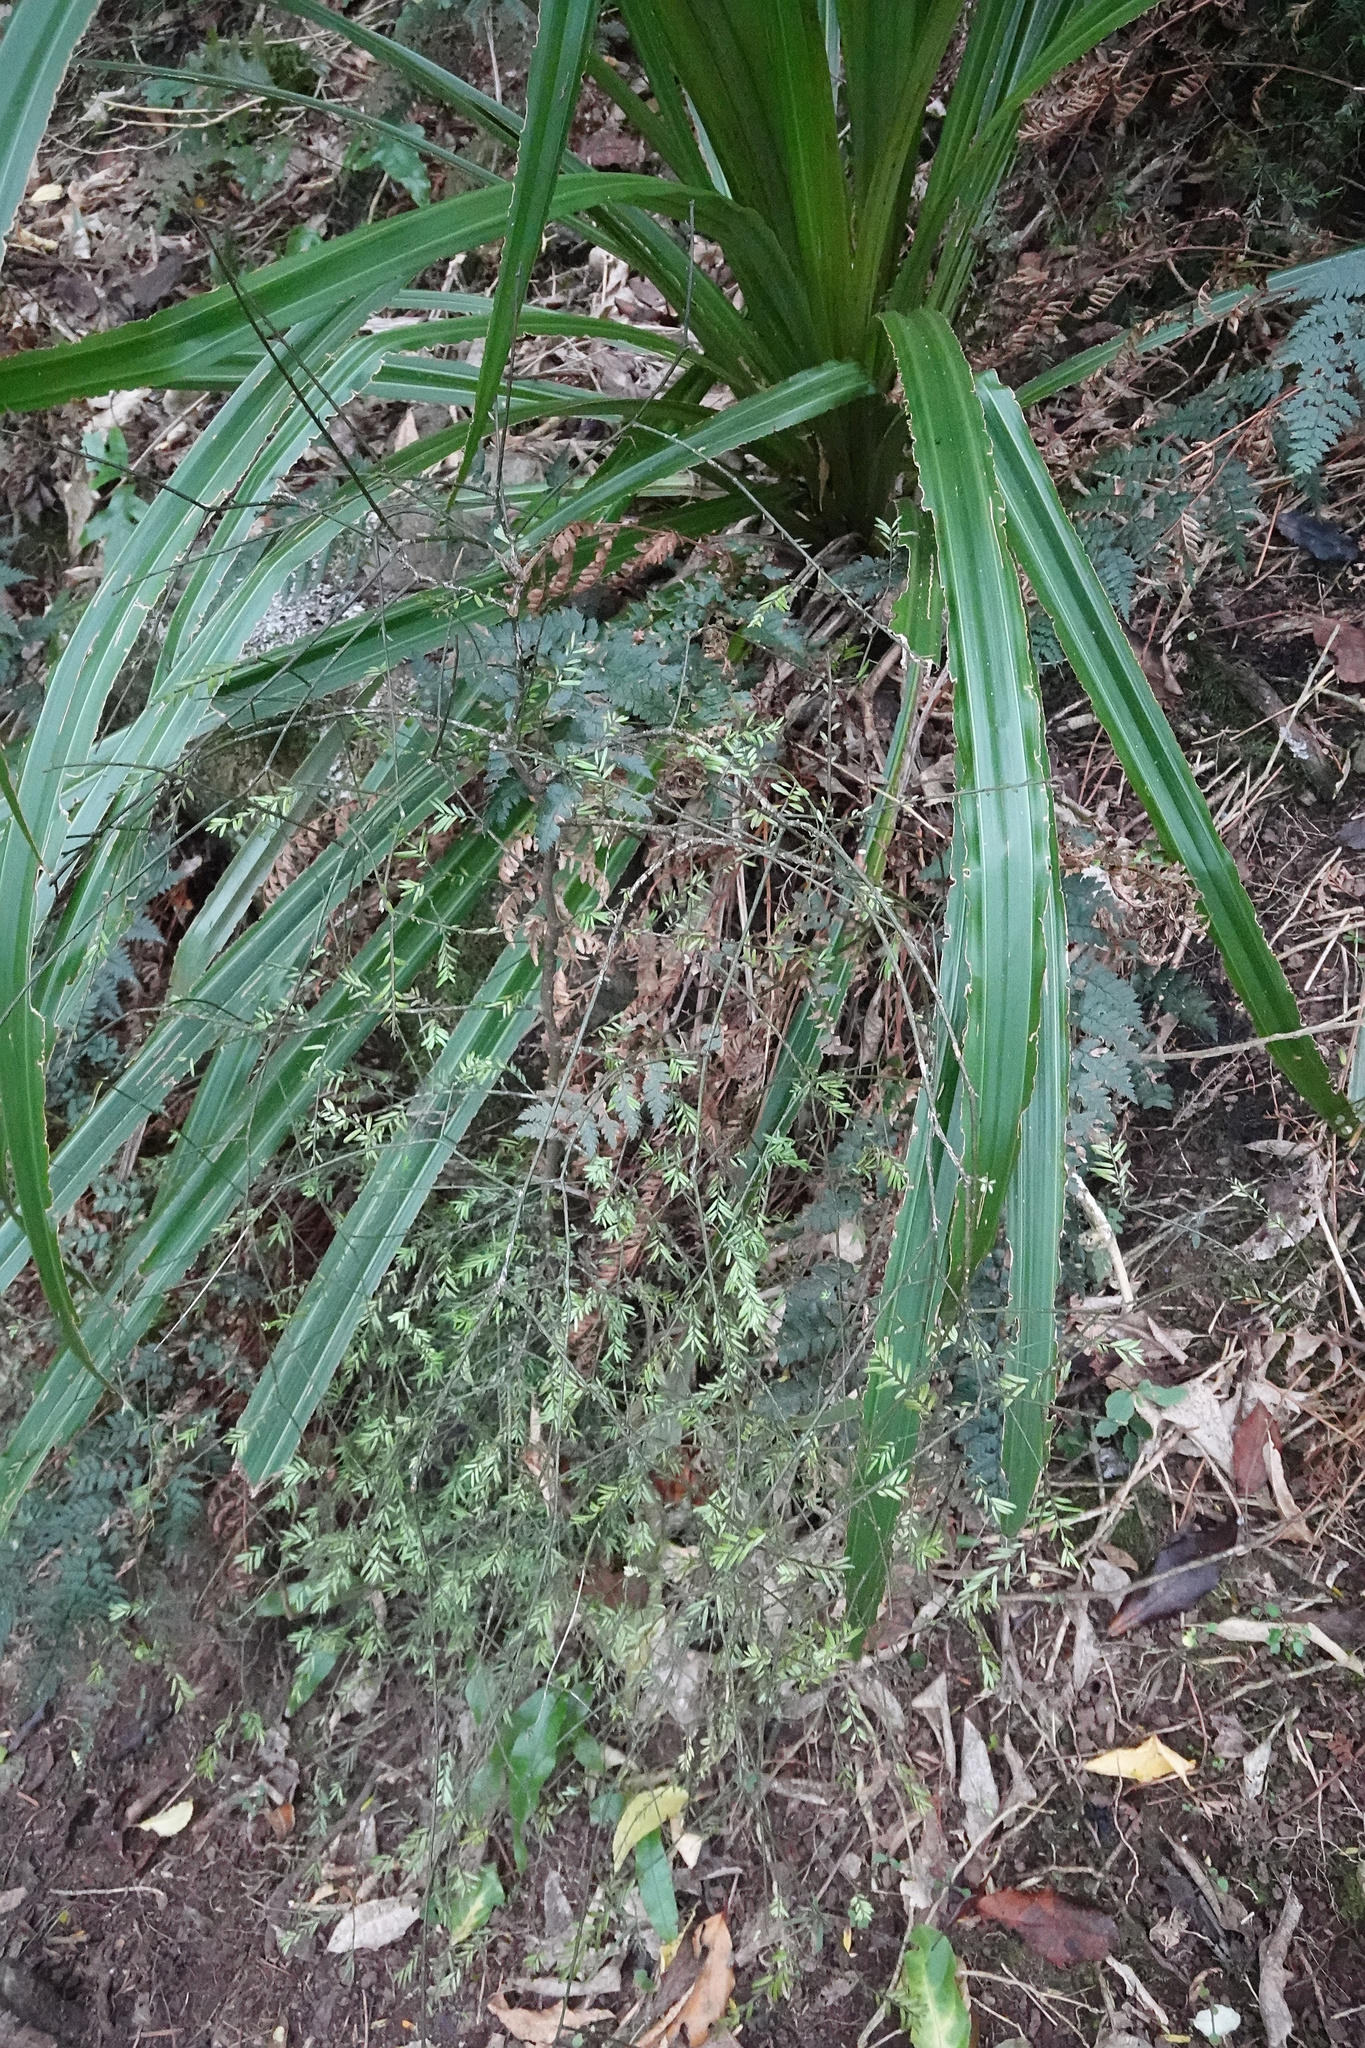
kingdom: Plantae
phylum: Tracheophyta
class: Pinopsida
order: Pinales
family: Podocarpaceae
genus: Prumnopitys
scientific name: Prumnopitys taxifolia
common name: Matai
